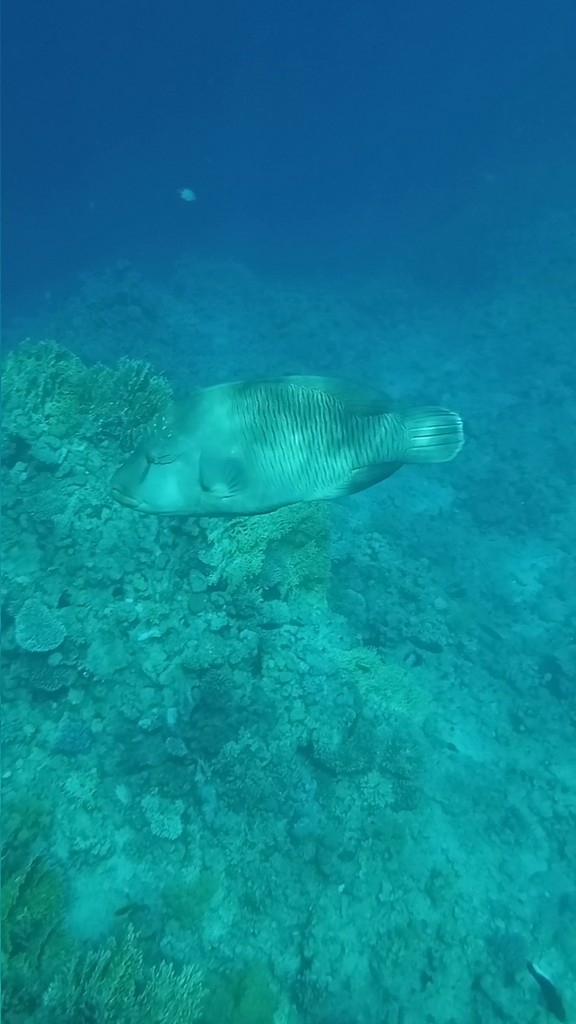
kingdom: Animalia
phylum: Chordata
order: Perciformes
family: Labridae
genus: Cheilinus
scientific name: Cheilinus undulatus
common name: Humphead wrasse
